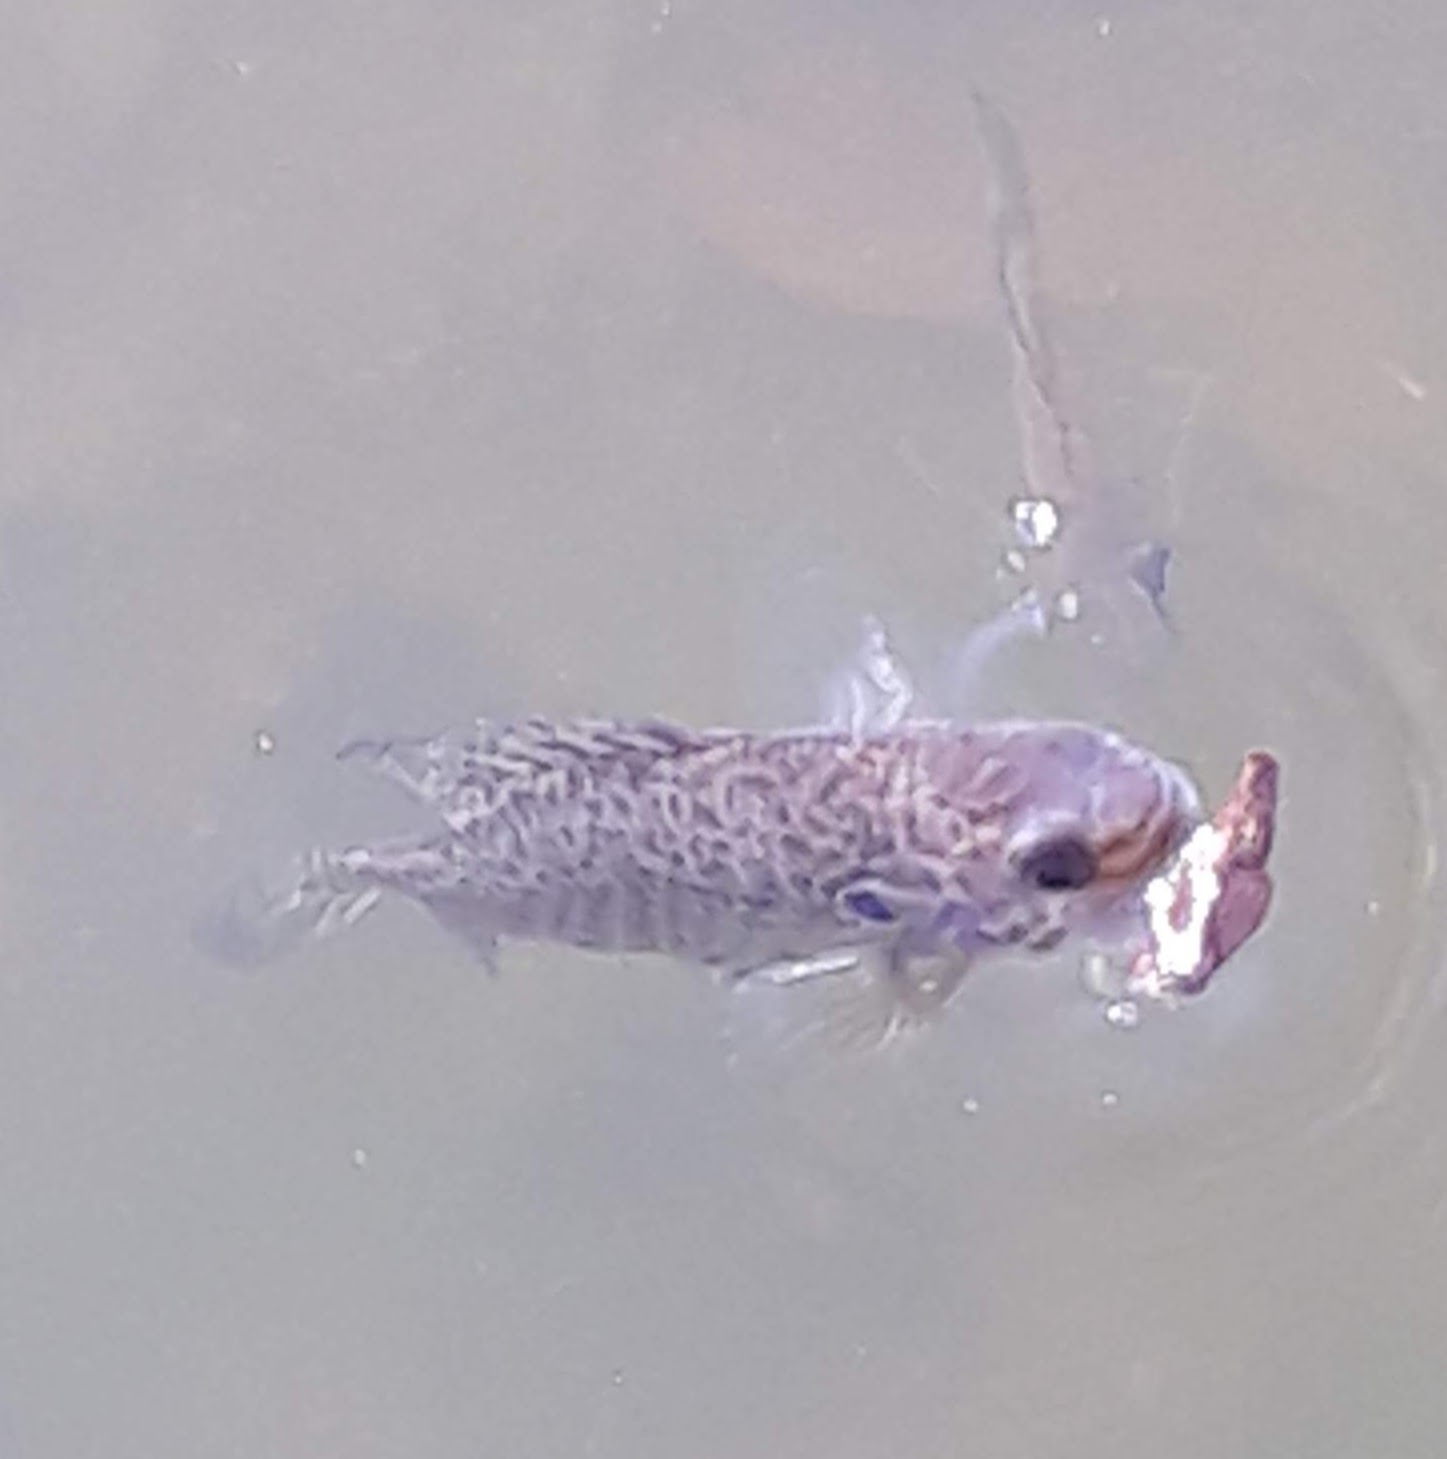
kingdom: Animalia
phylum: Chordata
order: Perciformes
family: Centrarchidae
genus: Lepomis
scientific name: Lepomis
